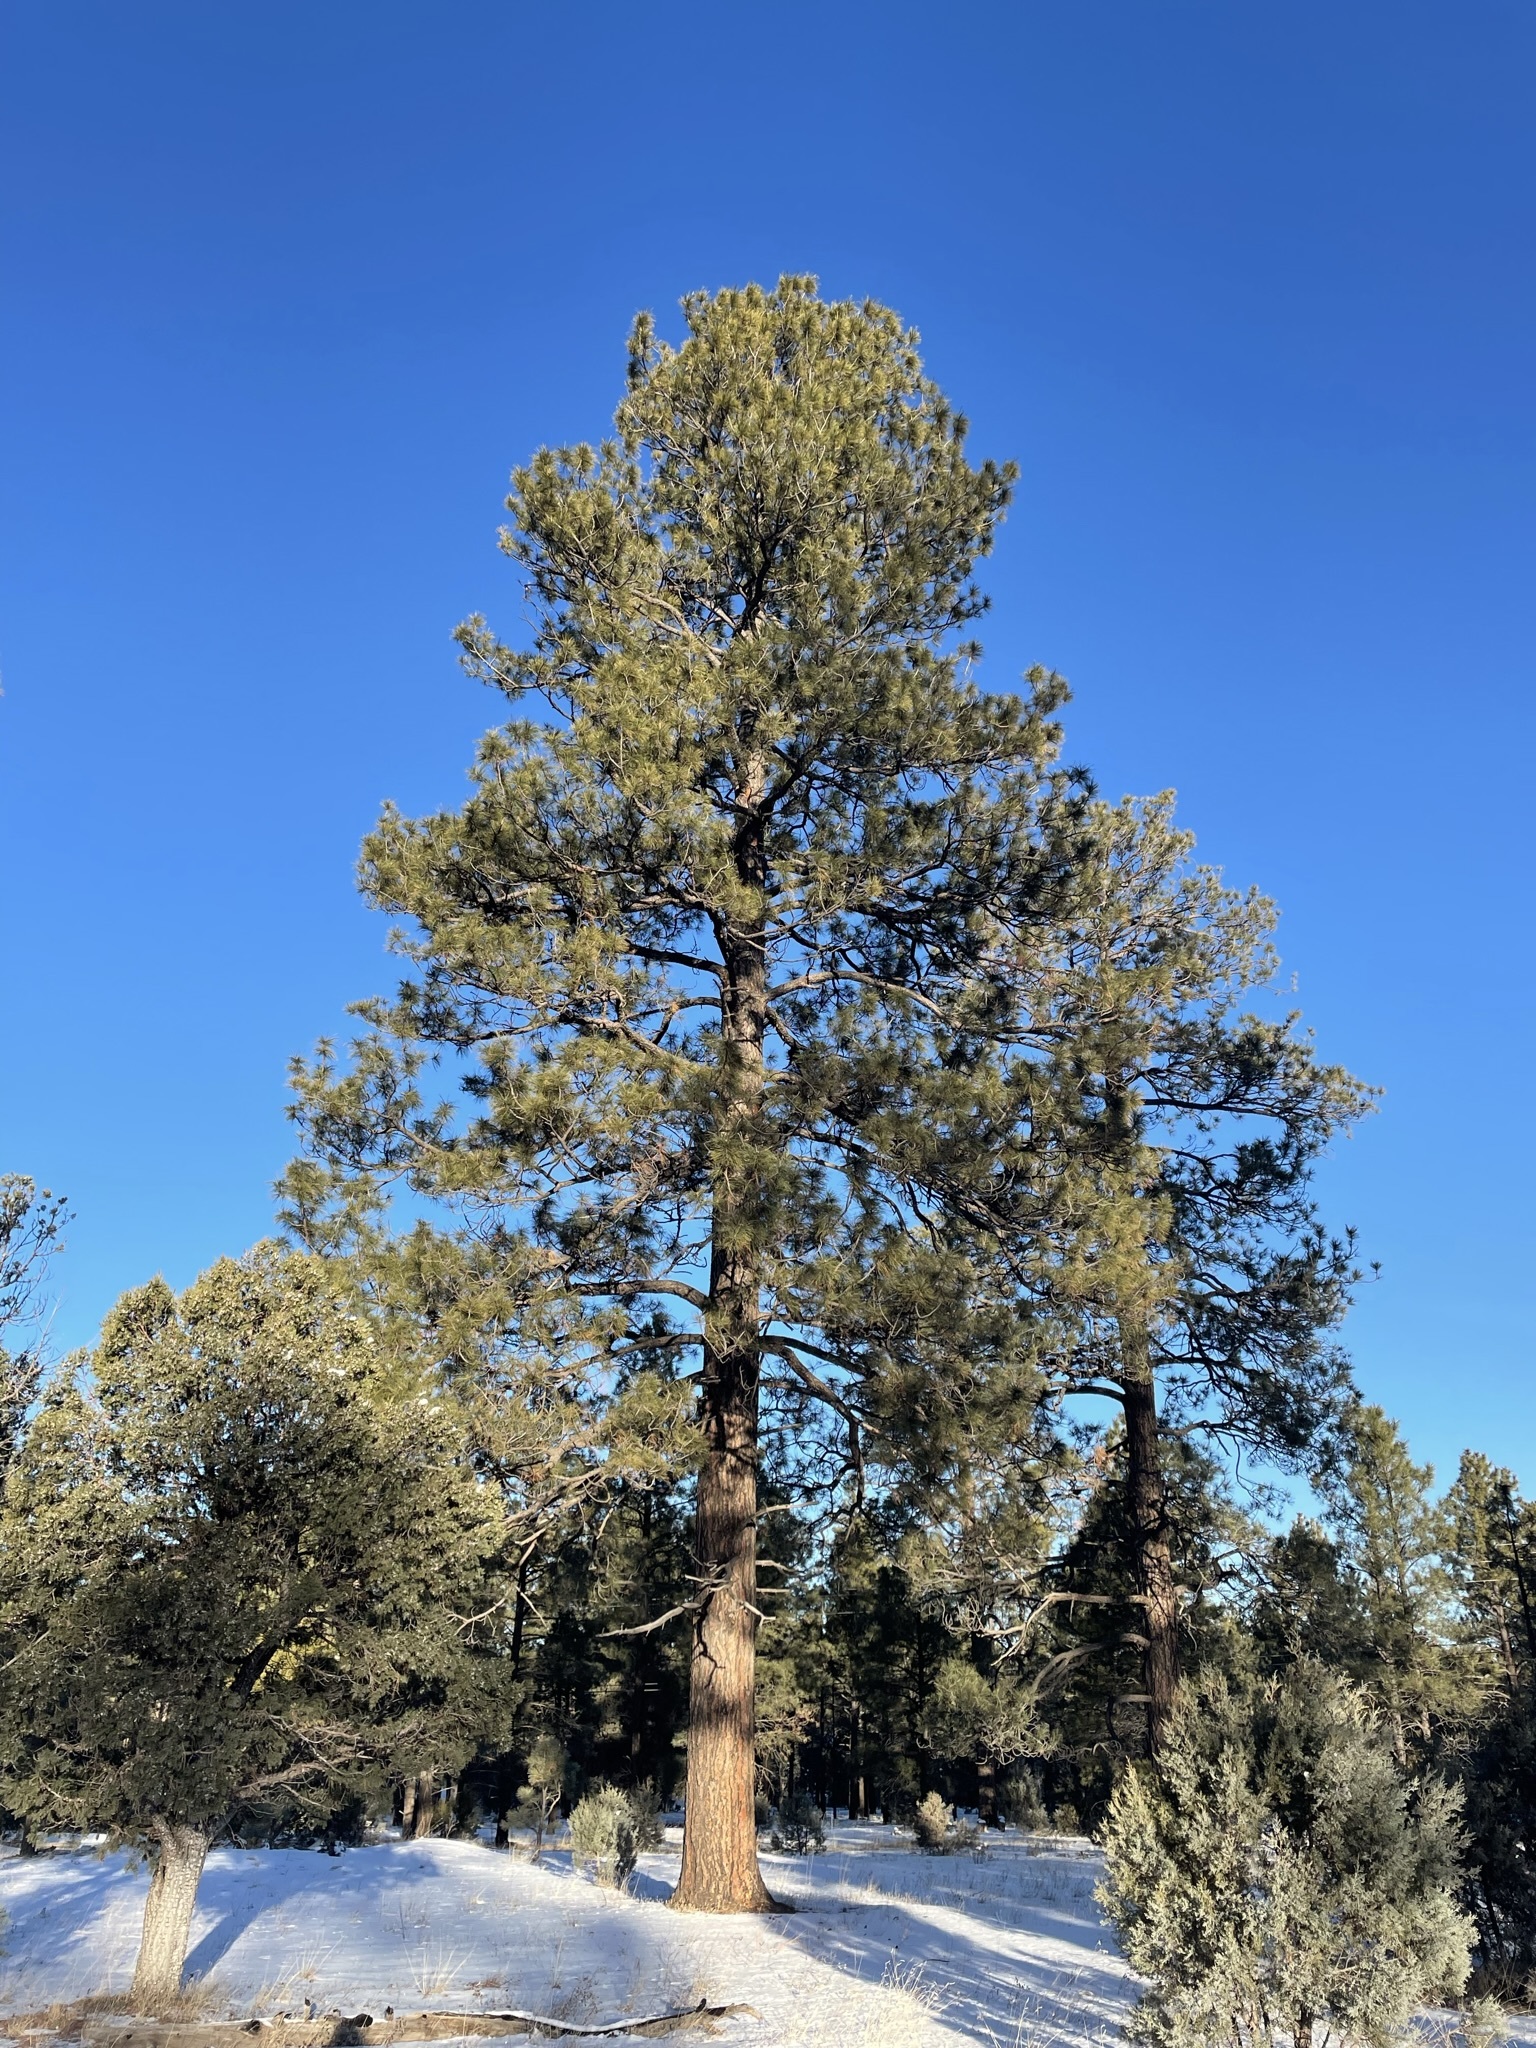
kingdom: Plantae
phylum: Tracheophyta
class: Pinopsida
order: Pinales
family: Pinaceae
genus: Pinus
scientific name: Pinus ponderosa
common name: Western yellow-pine
